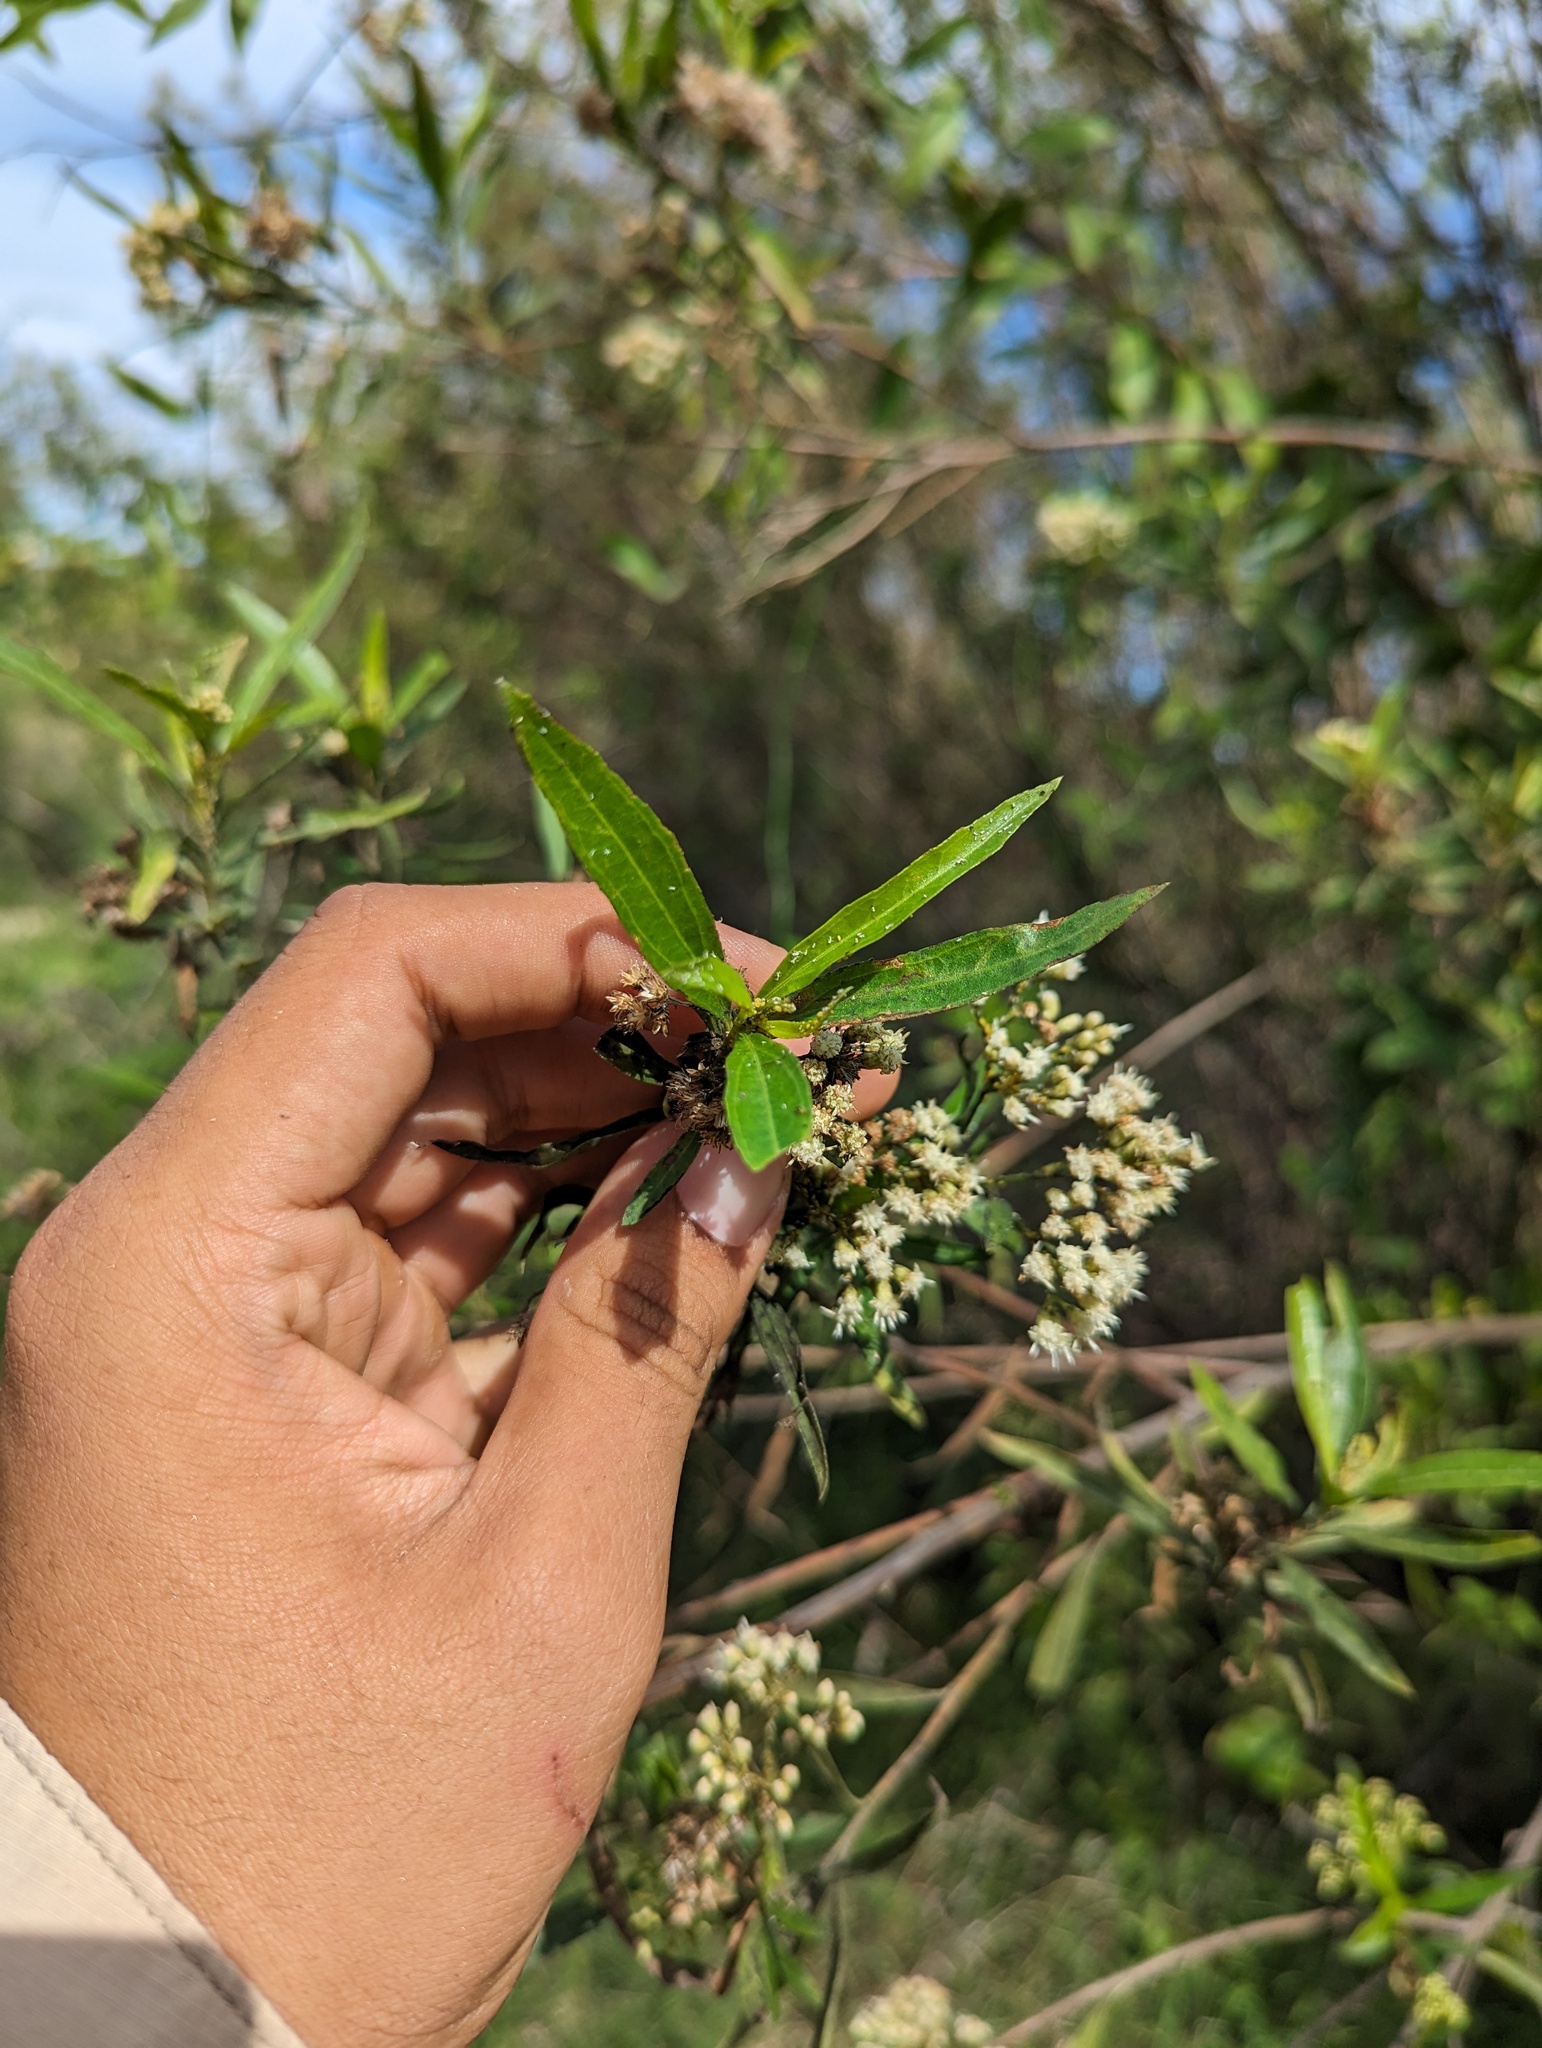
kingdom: Plantae
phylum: Tracheophyta
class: Magnoliopsida
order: Asterales
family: Asteraceae
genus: Baccharis
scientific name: Baccharis salicifolia
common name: Sticky baccharis
